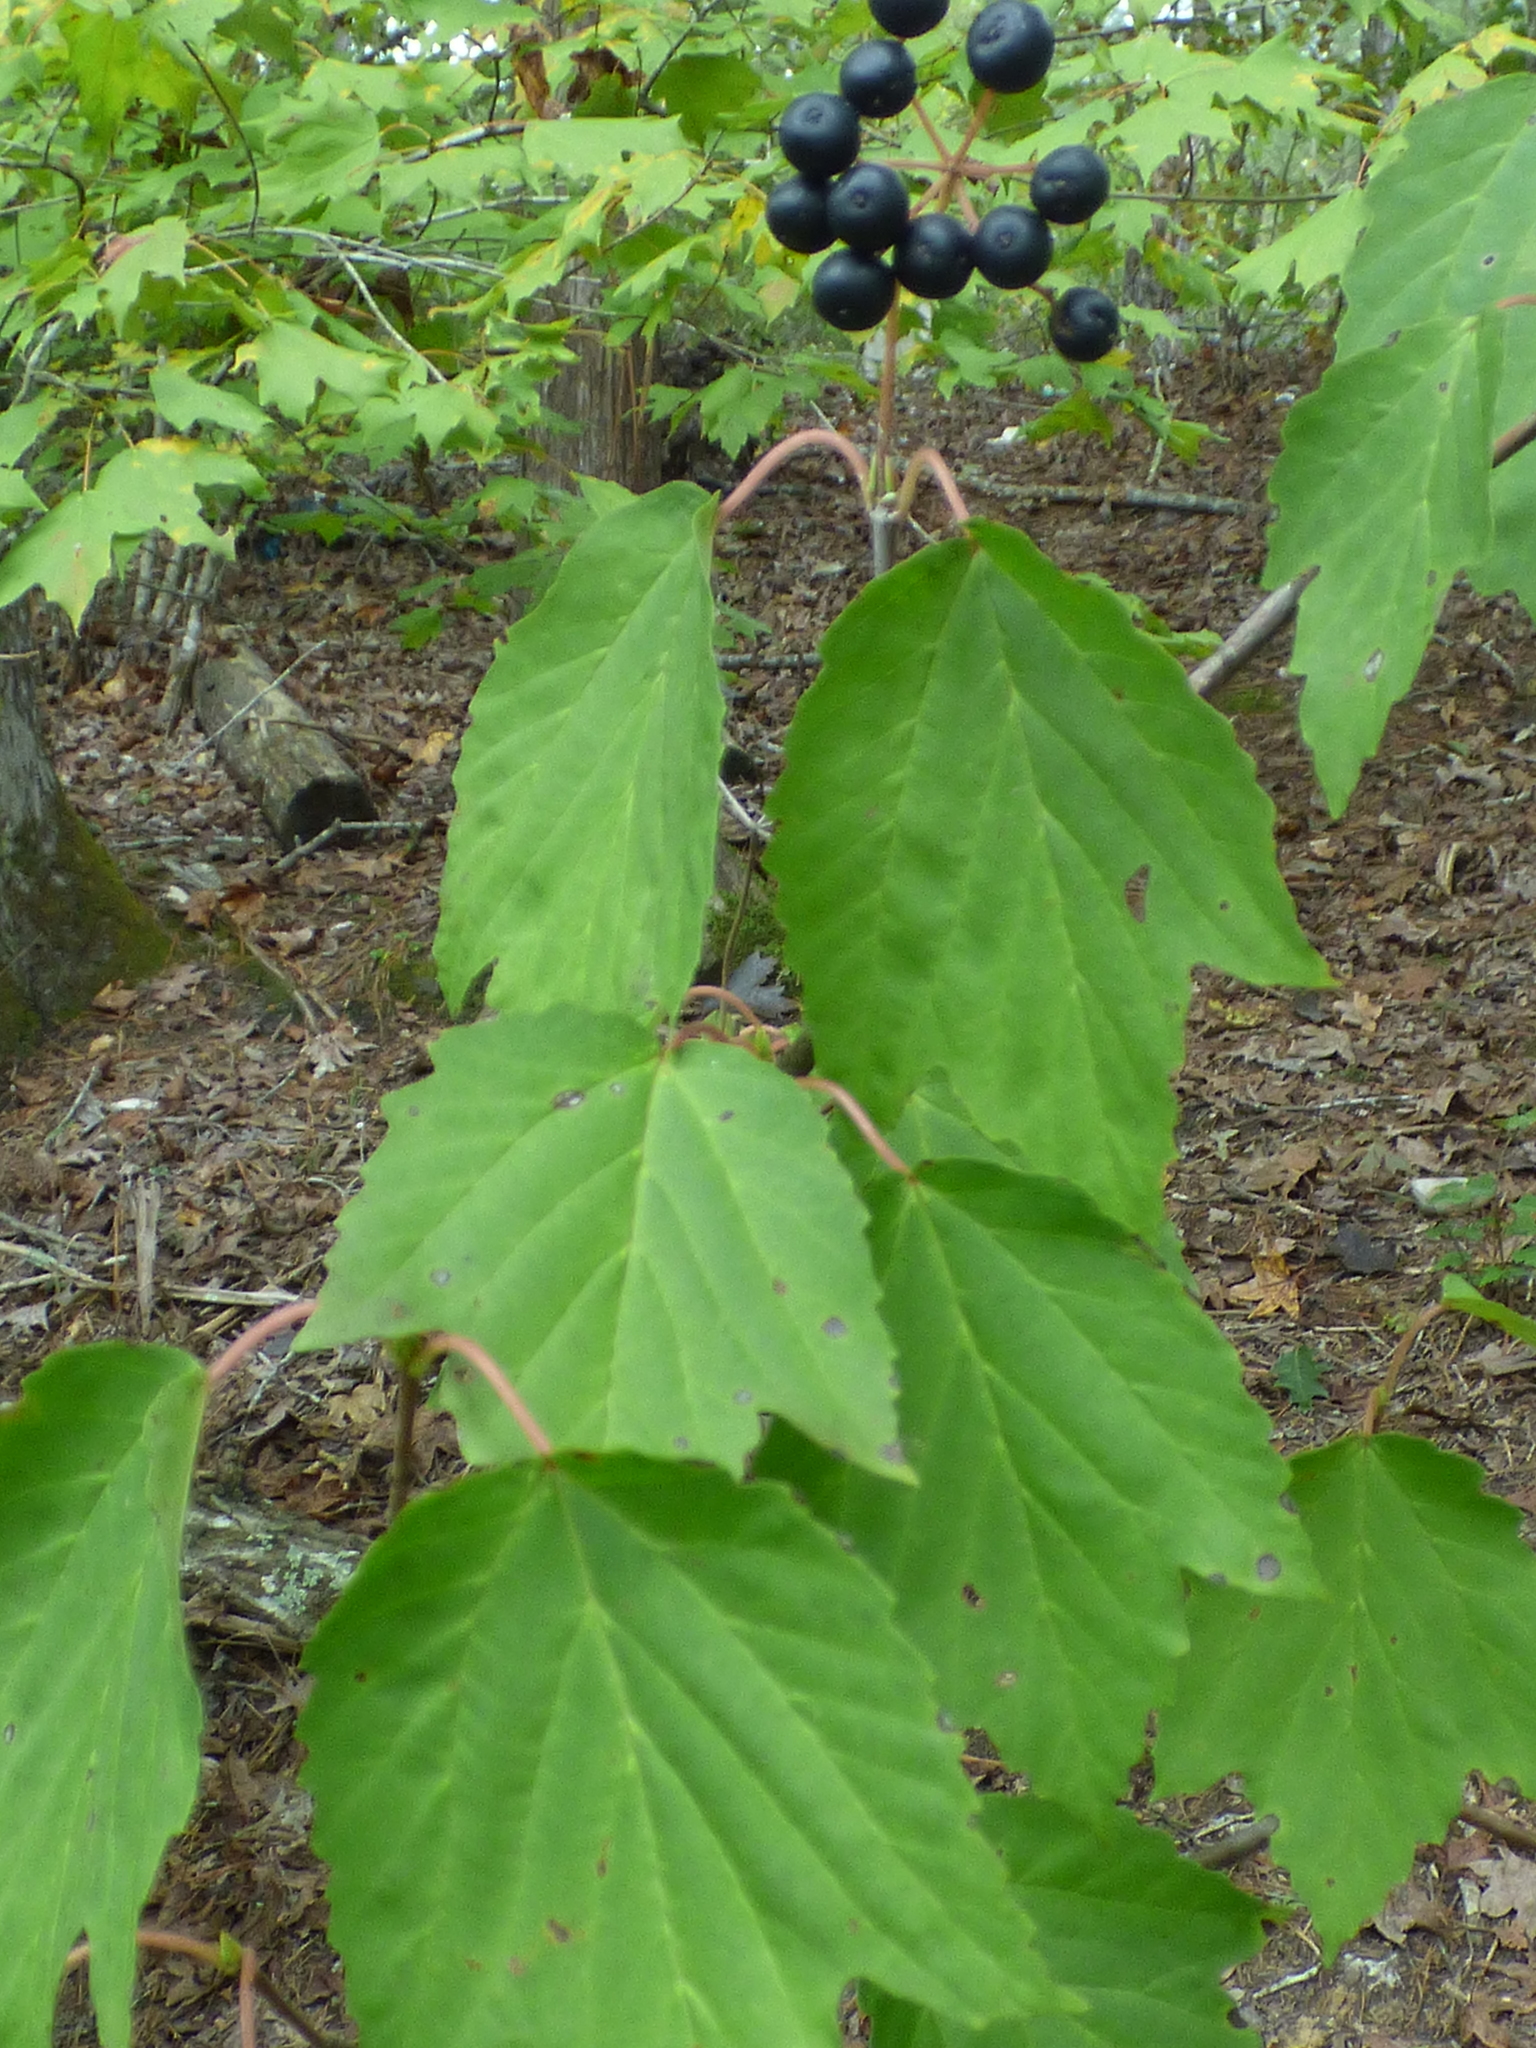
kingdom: Plantae
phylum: Tracheophyta
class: Magnoliopsida
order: Dipsacales
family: Viburnaceae
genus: Viburnum
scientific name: Viburnum acerifolium
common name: Dockmackie
